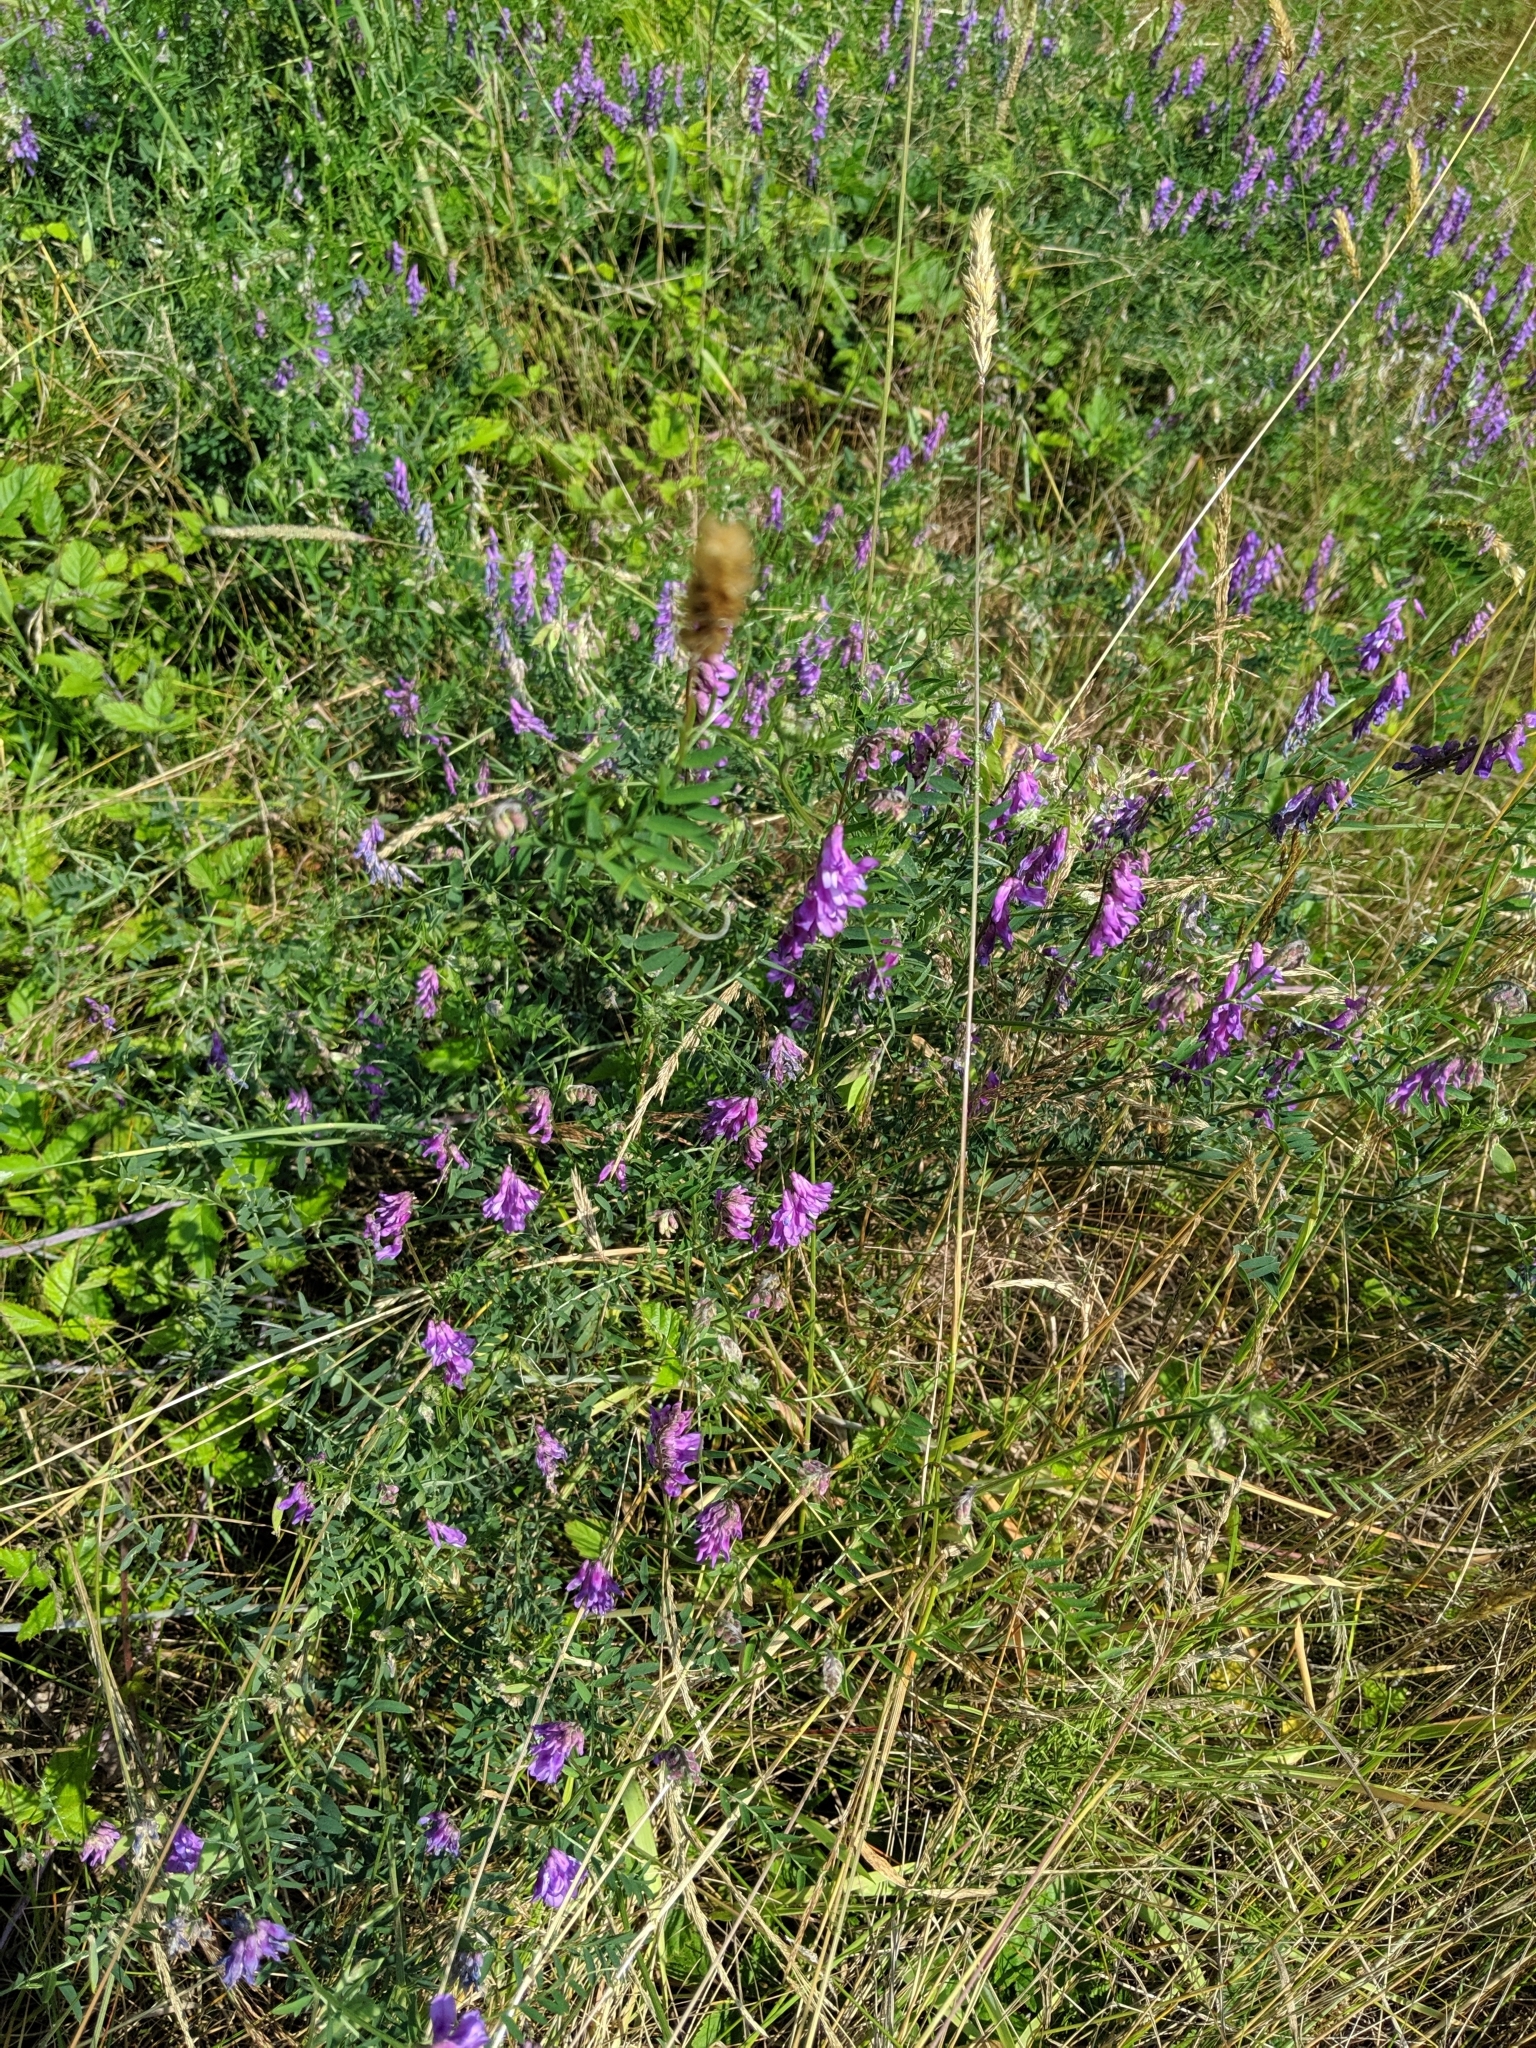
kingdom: Plantae
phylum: Tracheophyta
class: Magnoliopsida
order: Fabales
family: Fabaceae
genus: Vicia
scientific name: Vicia cracca
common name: Bird vetch
